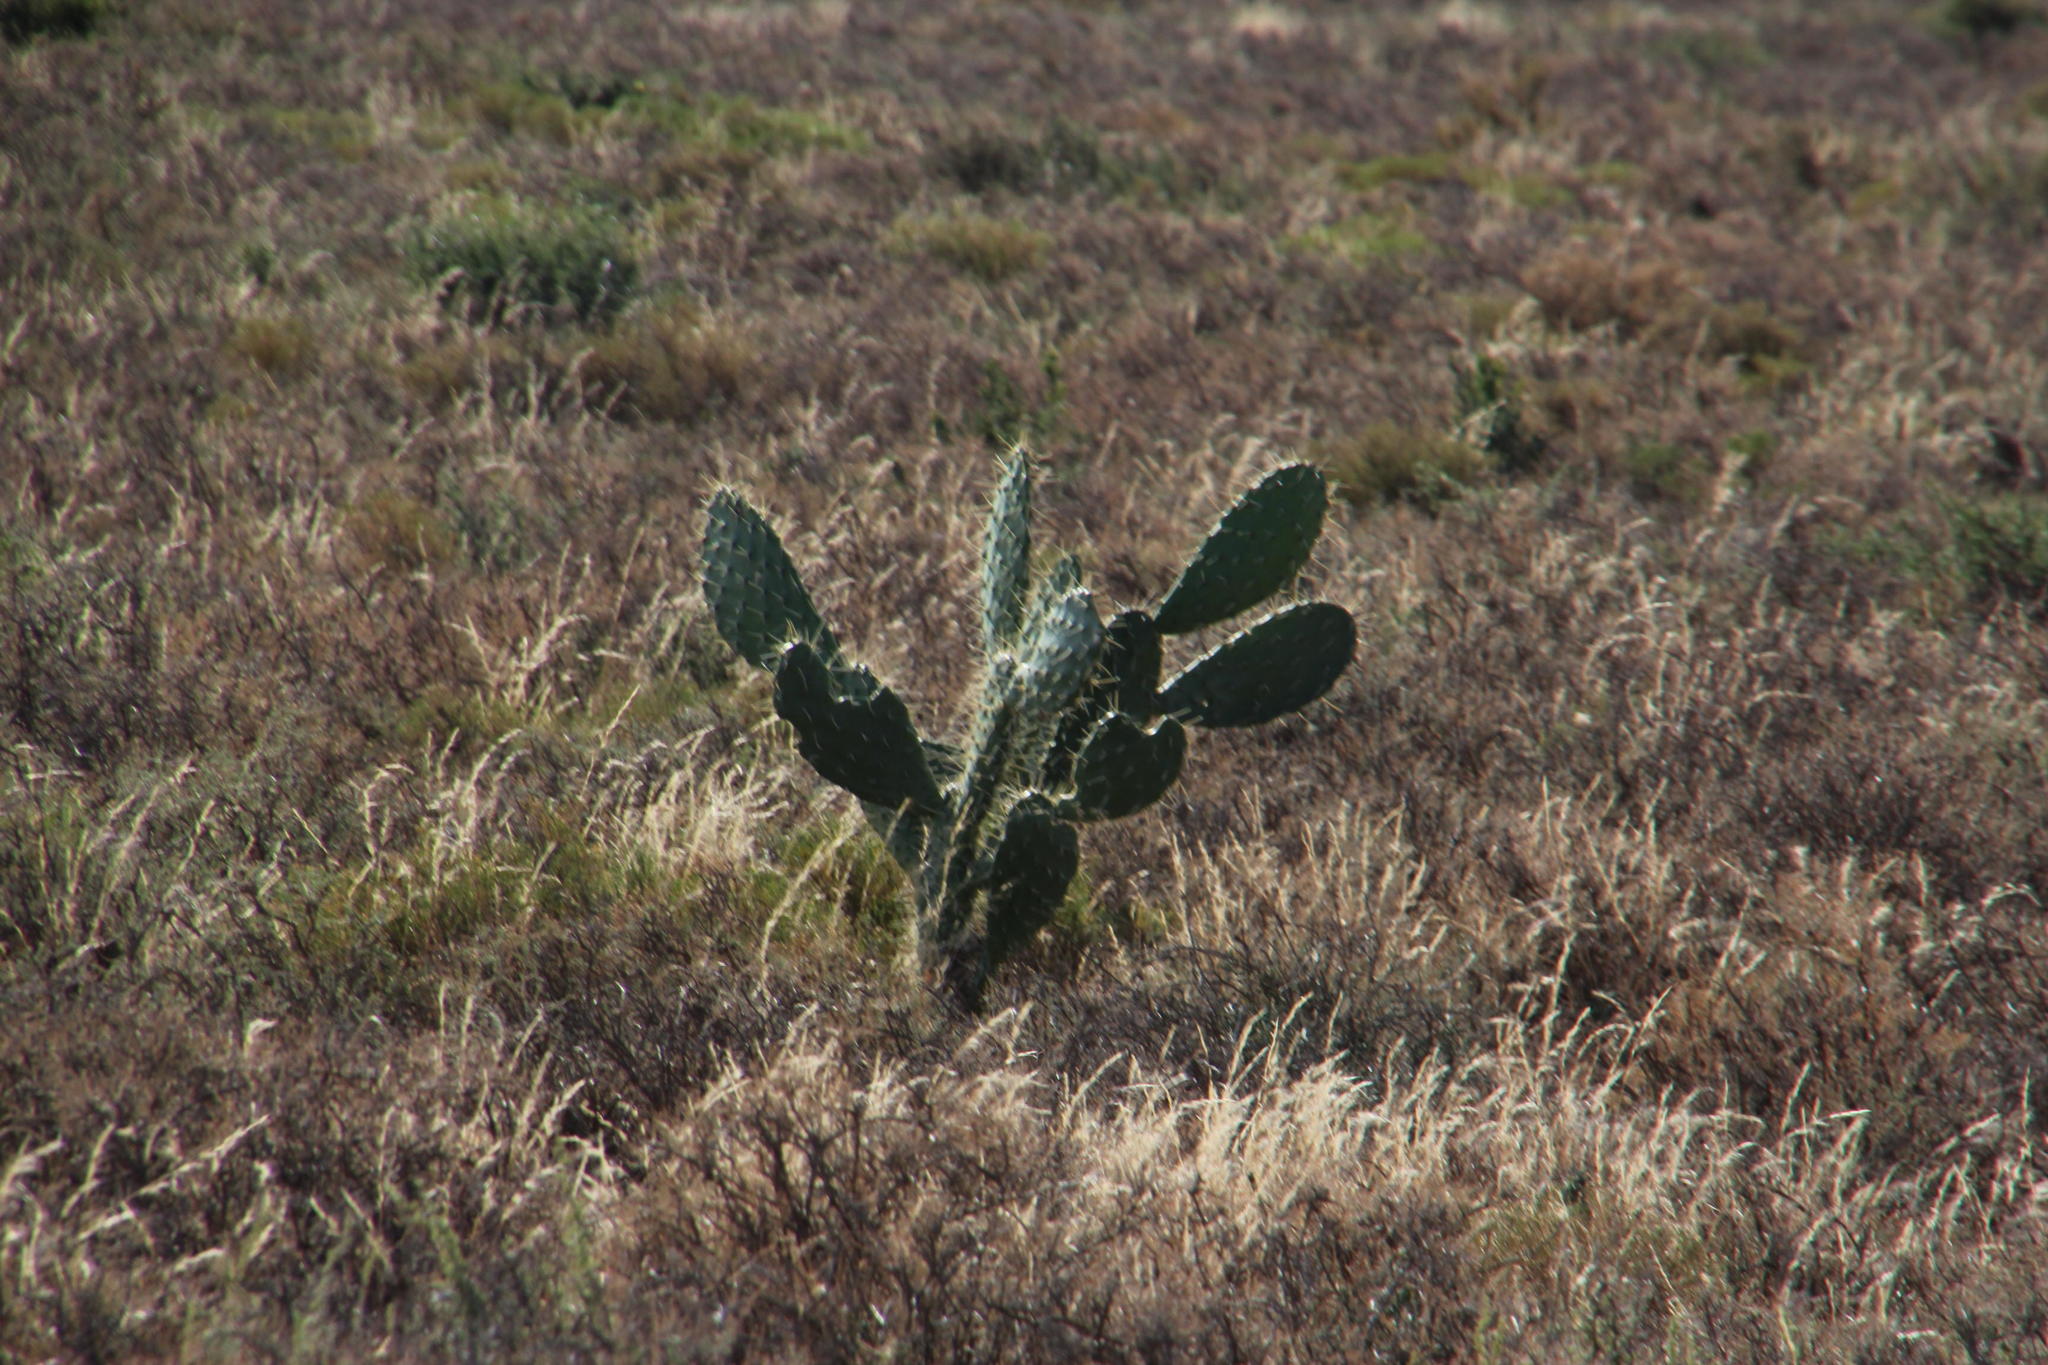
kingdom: Plantae
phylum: Tracheophyta
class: Magnoliopsida
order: Caryophyllales
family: Cactaceae
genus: Opuntia
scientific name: Opuntia ficus-indica
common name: Barbary fig
